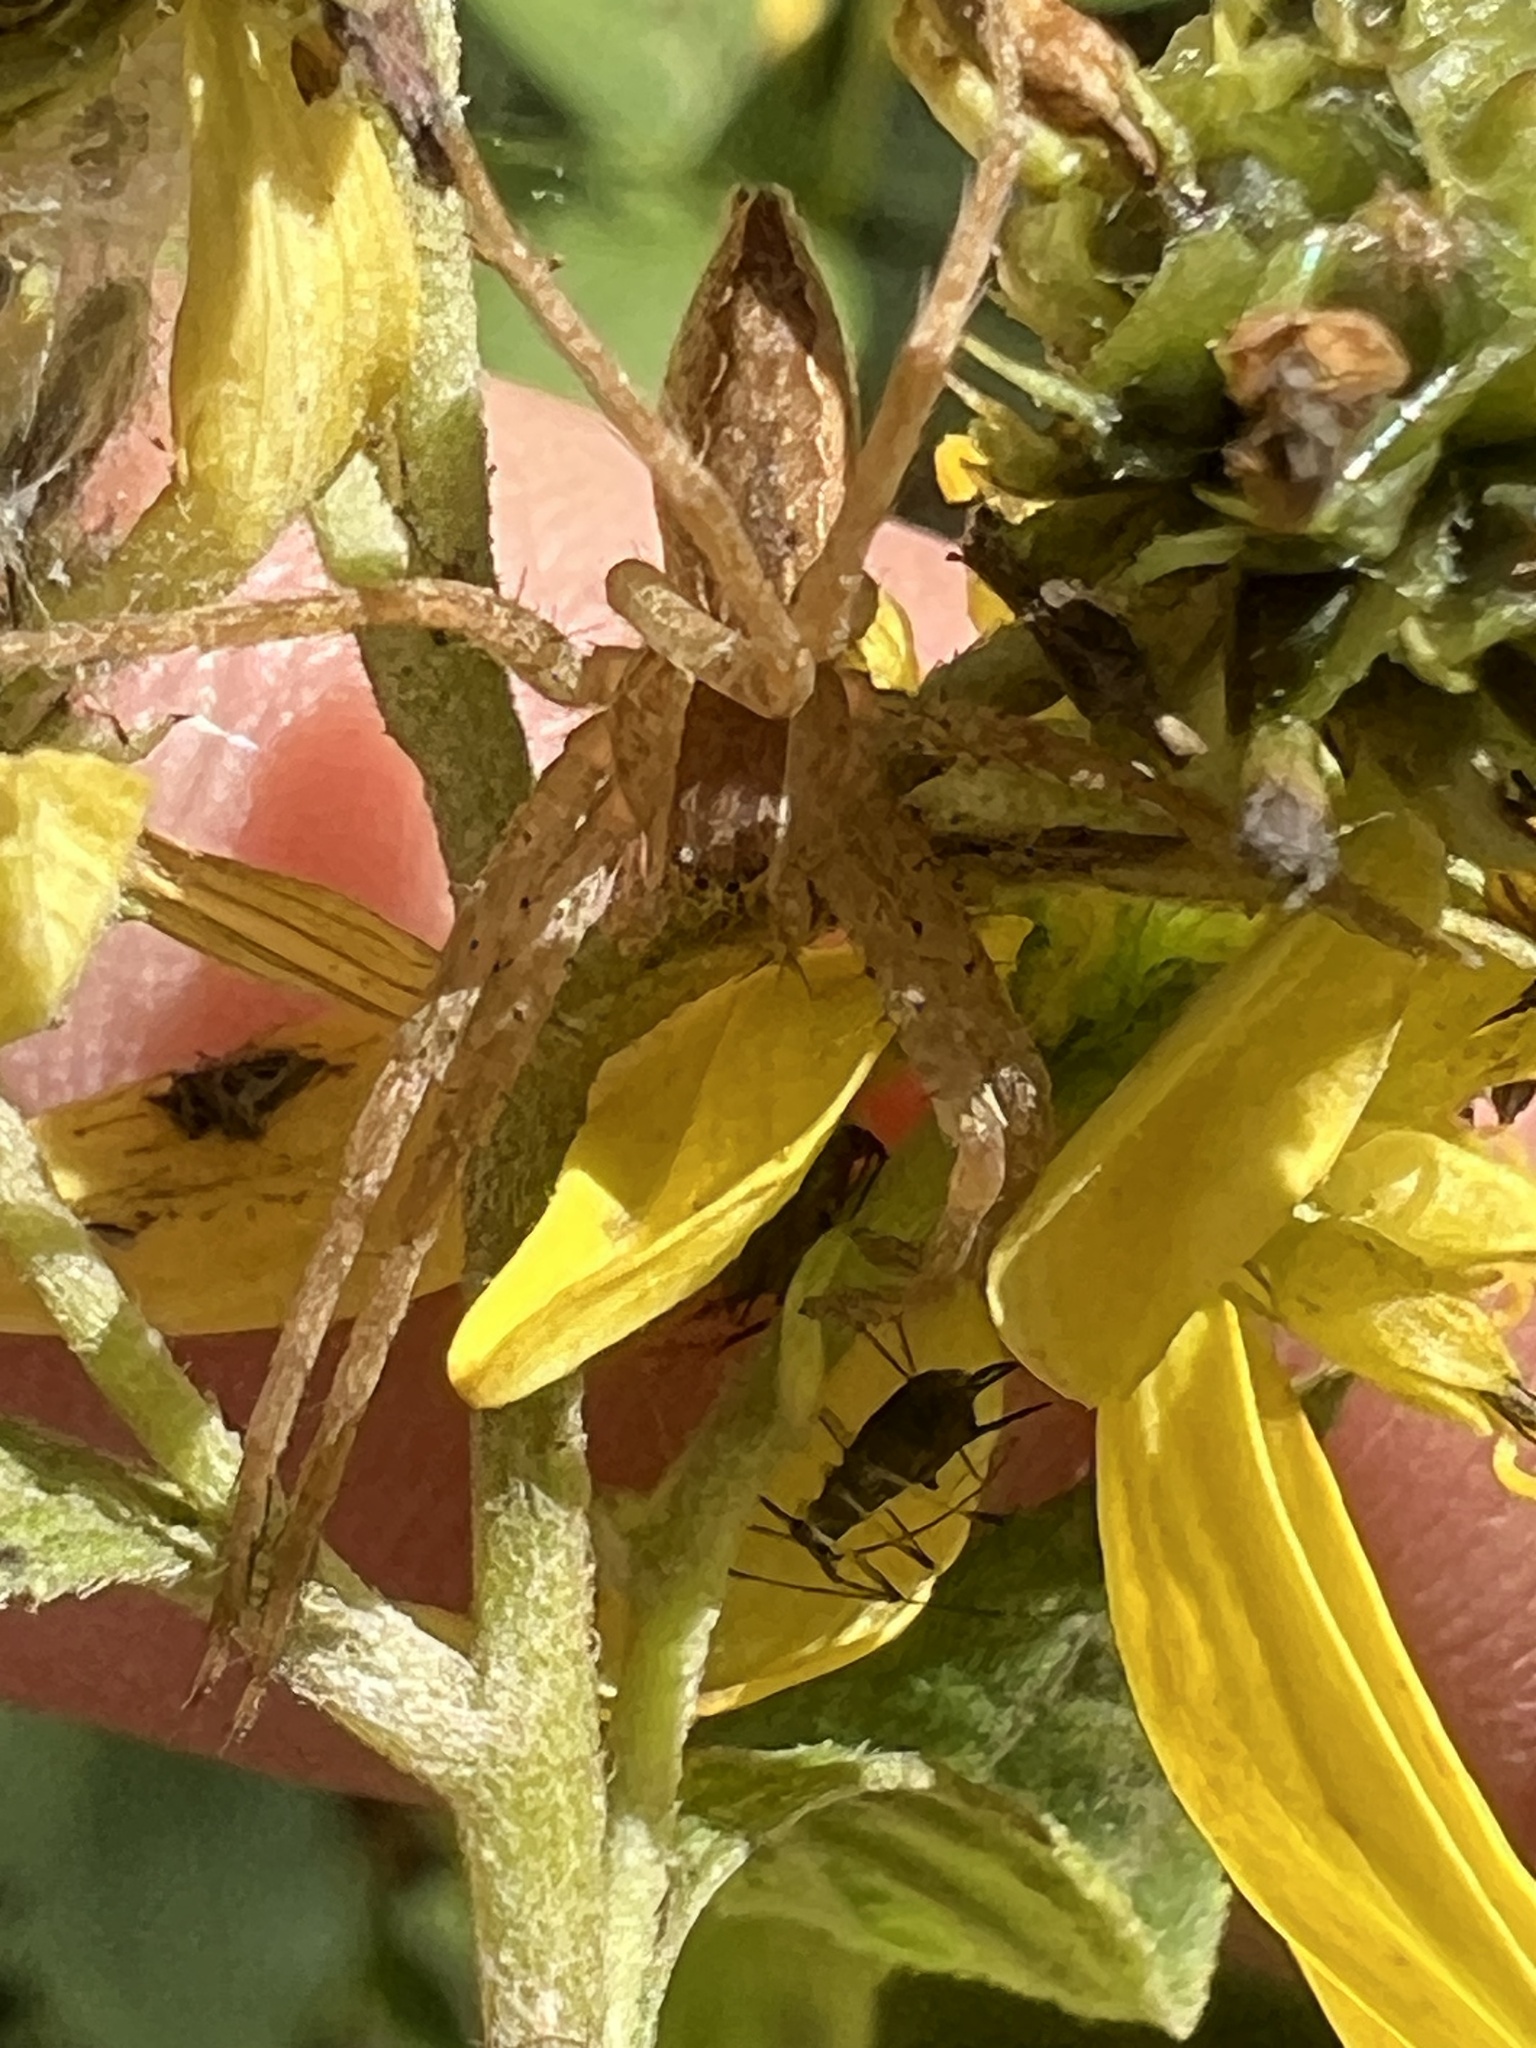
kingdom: Animalia
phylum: Arthropoda
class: Arachnida
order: Araneae
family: Pisauridae
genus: Pisaurina
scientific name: Pisaurina mira
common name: American nursery web spider
